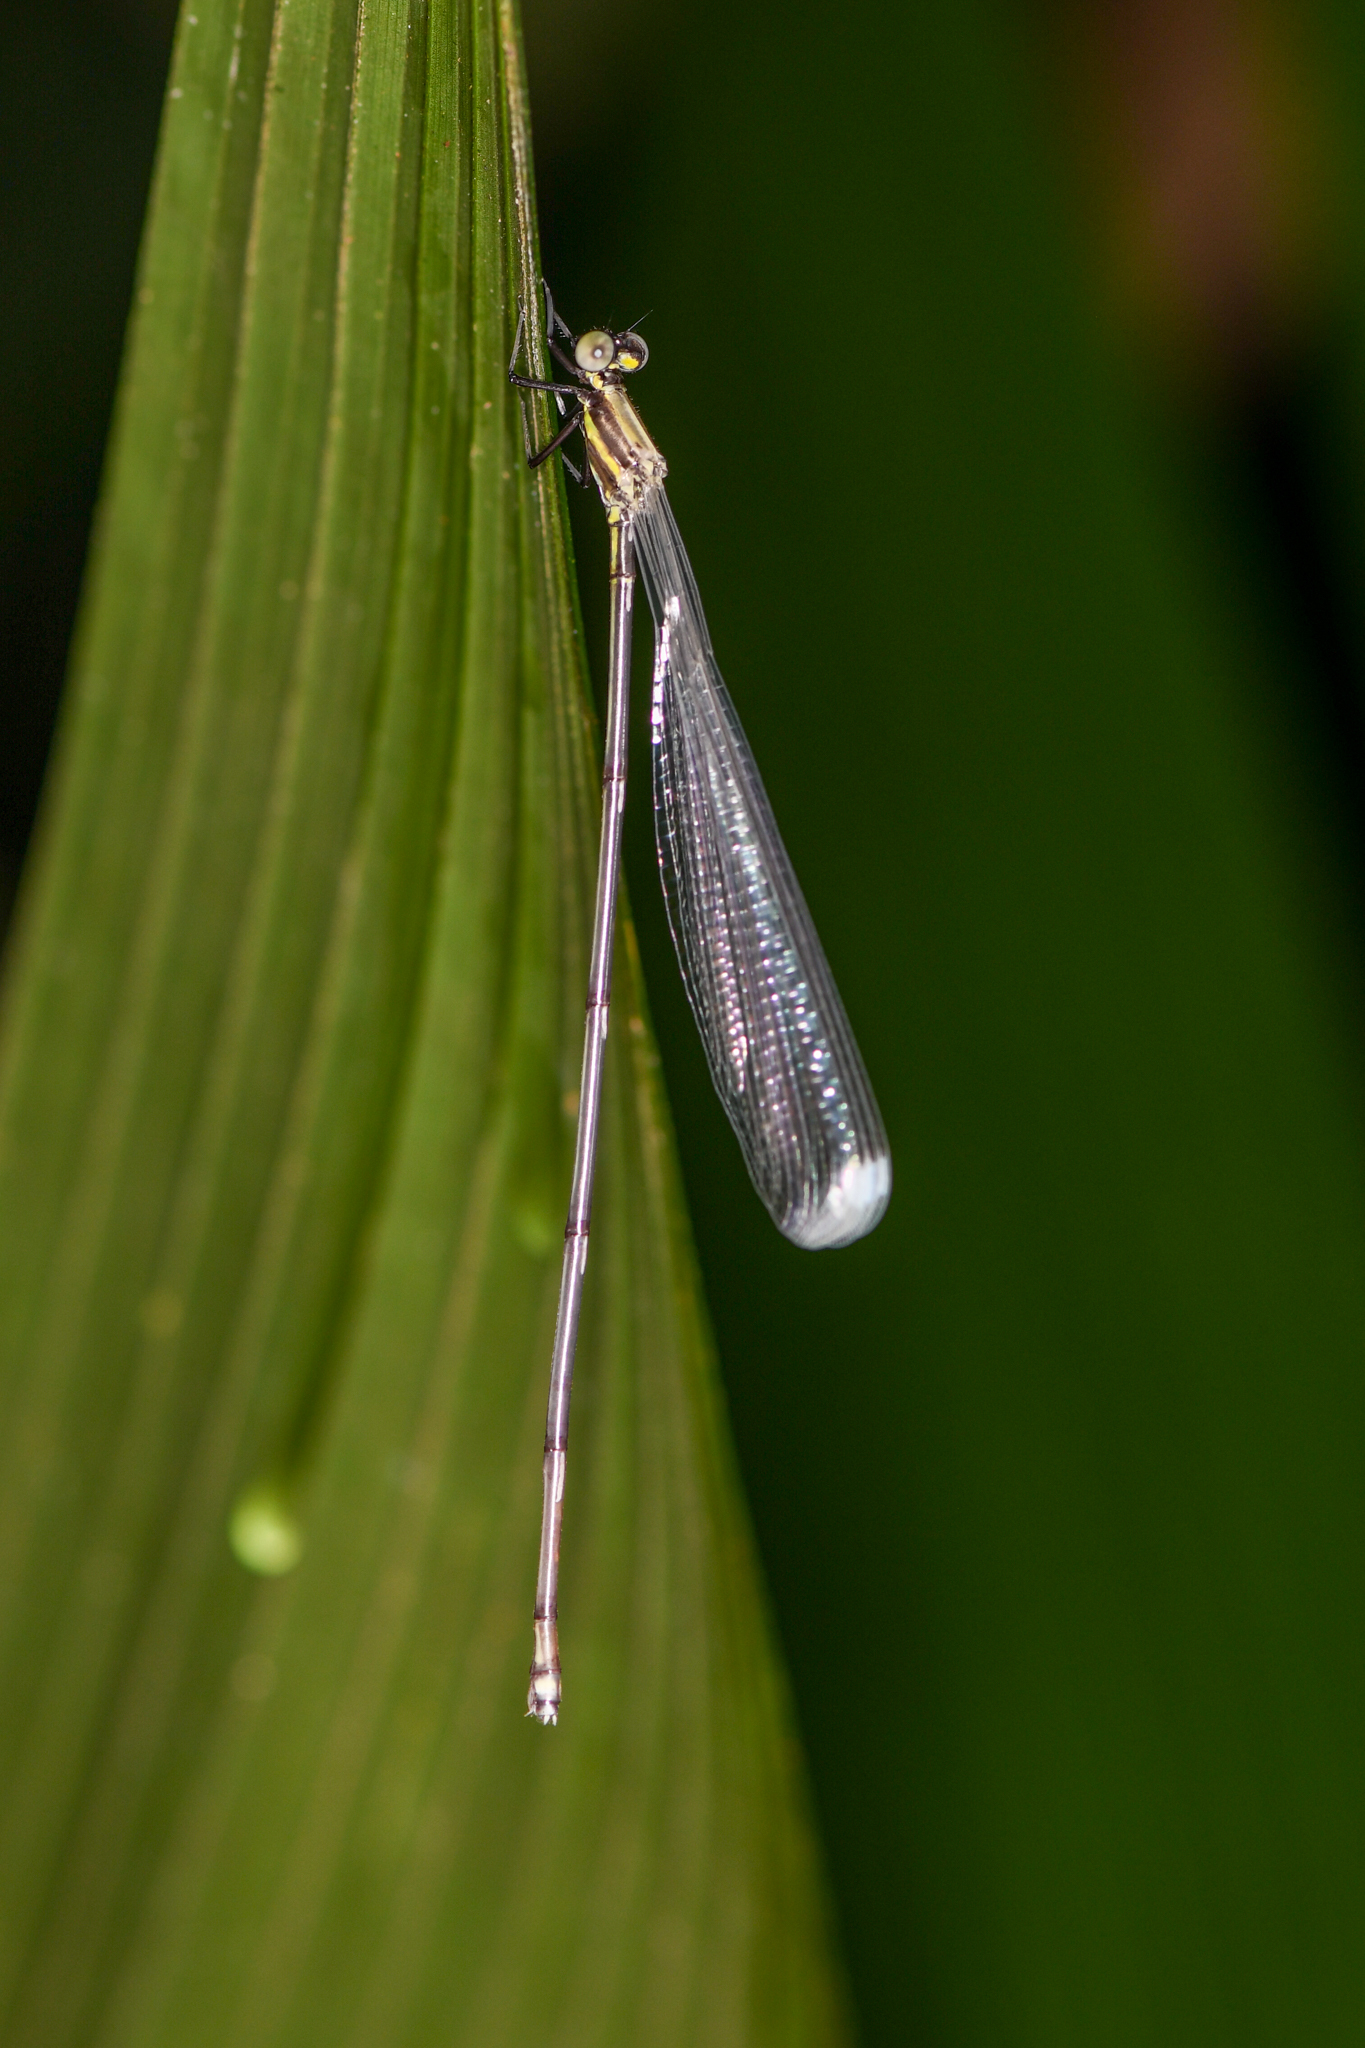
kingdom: Animalia
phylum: Arthropoda
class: Insecta
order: Odonata
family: Coenagrionidae
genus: Mecistogaster
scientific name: Mecistogaster modesta
